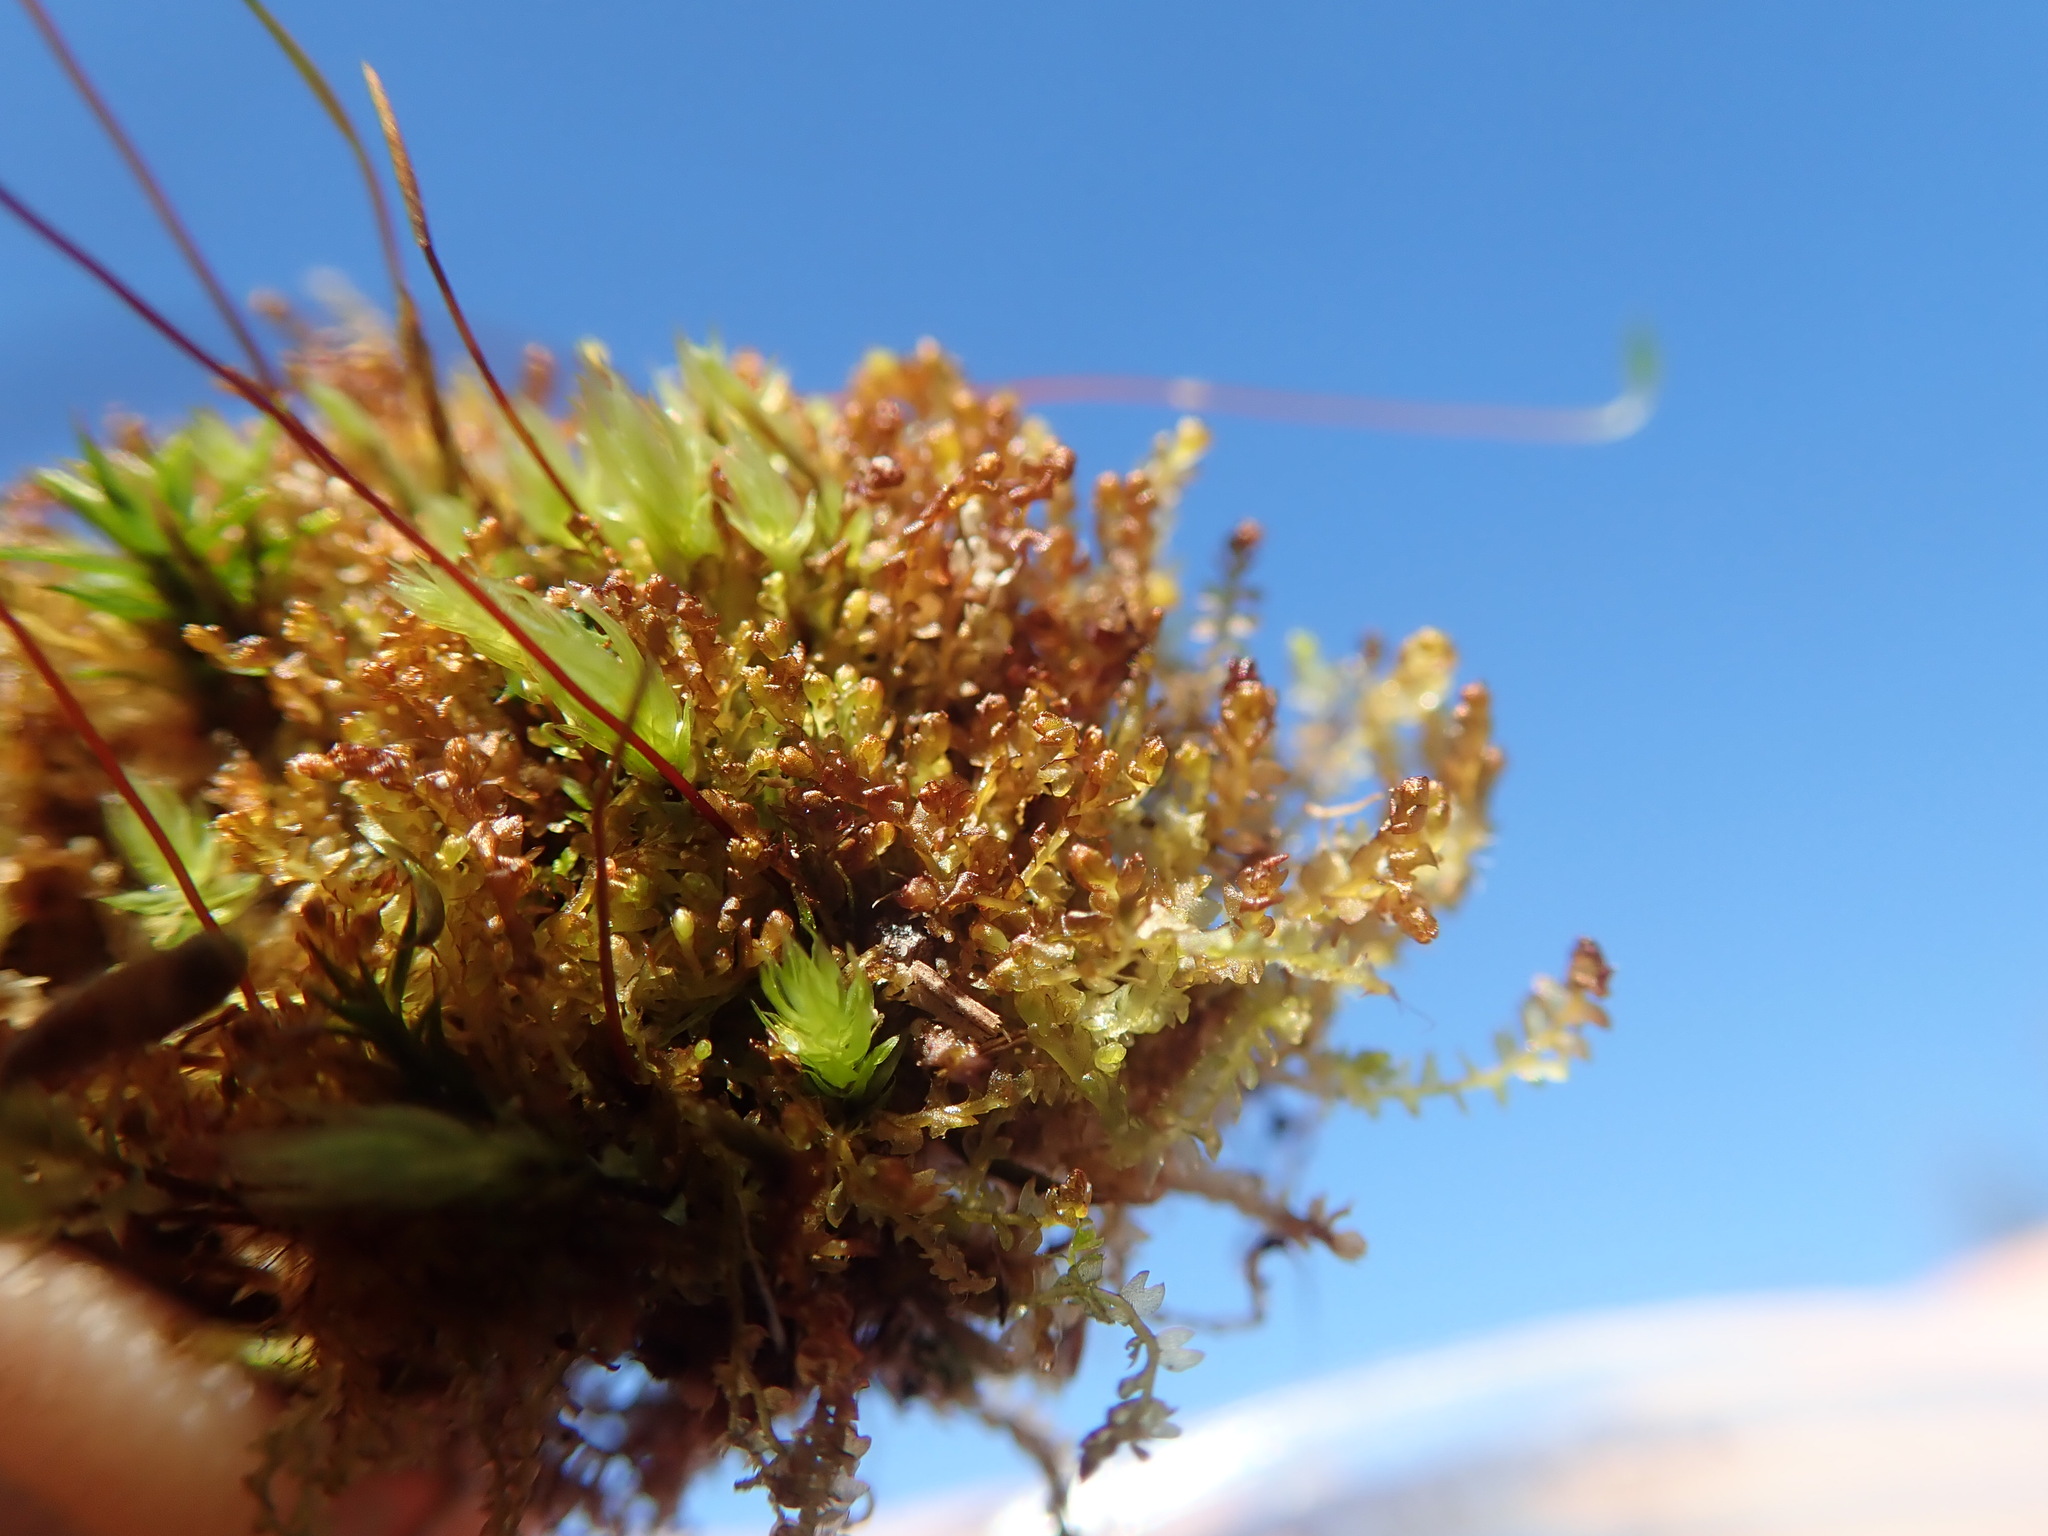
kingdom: Plantae
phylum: Marchantiophyta
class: Jungermanniopsida
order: Jungermanniales
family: Anastrophyllaceae
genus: Gymnocolea
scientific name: Gymnocolea inflata
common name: Inflated notchwort
